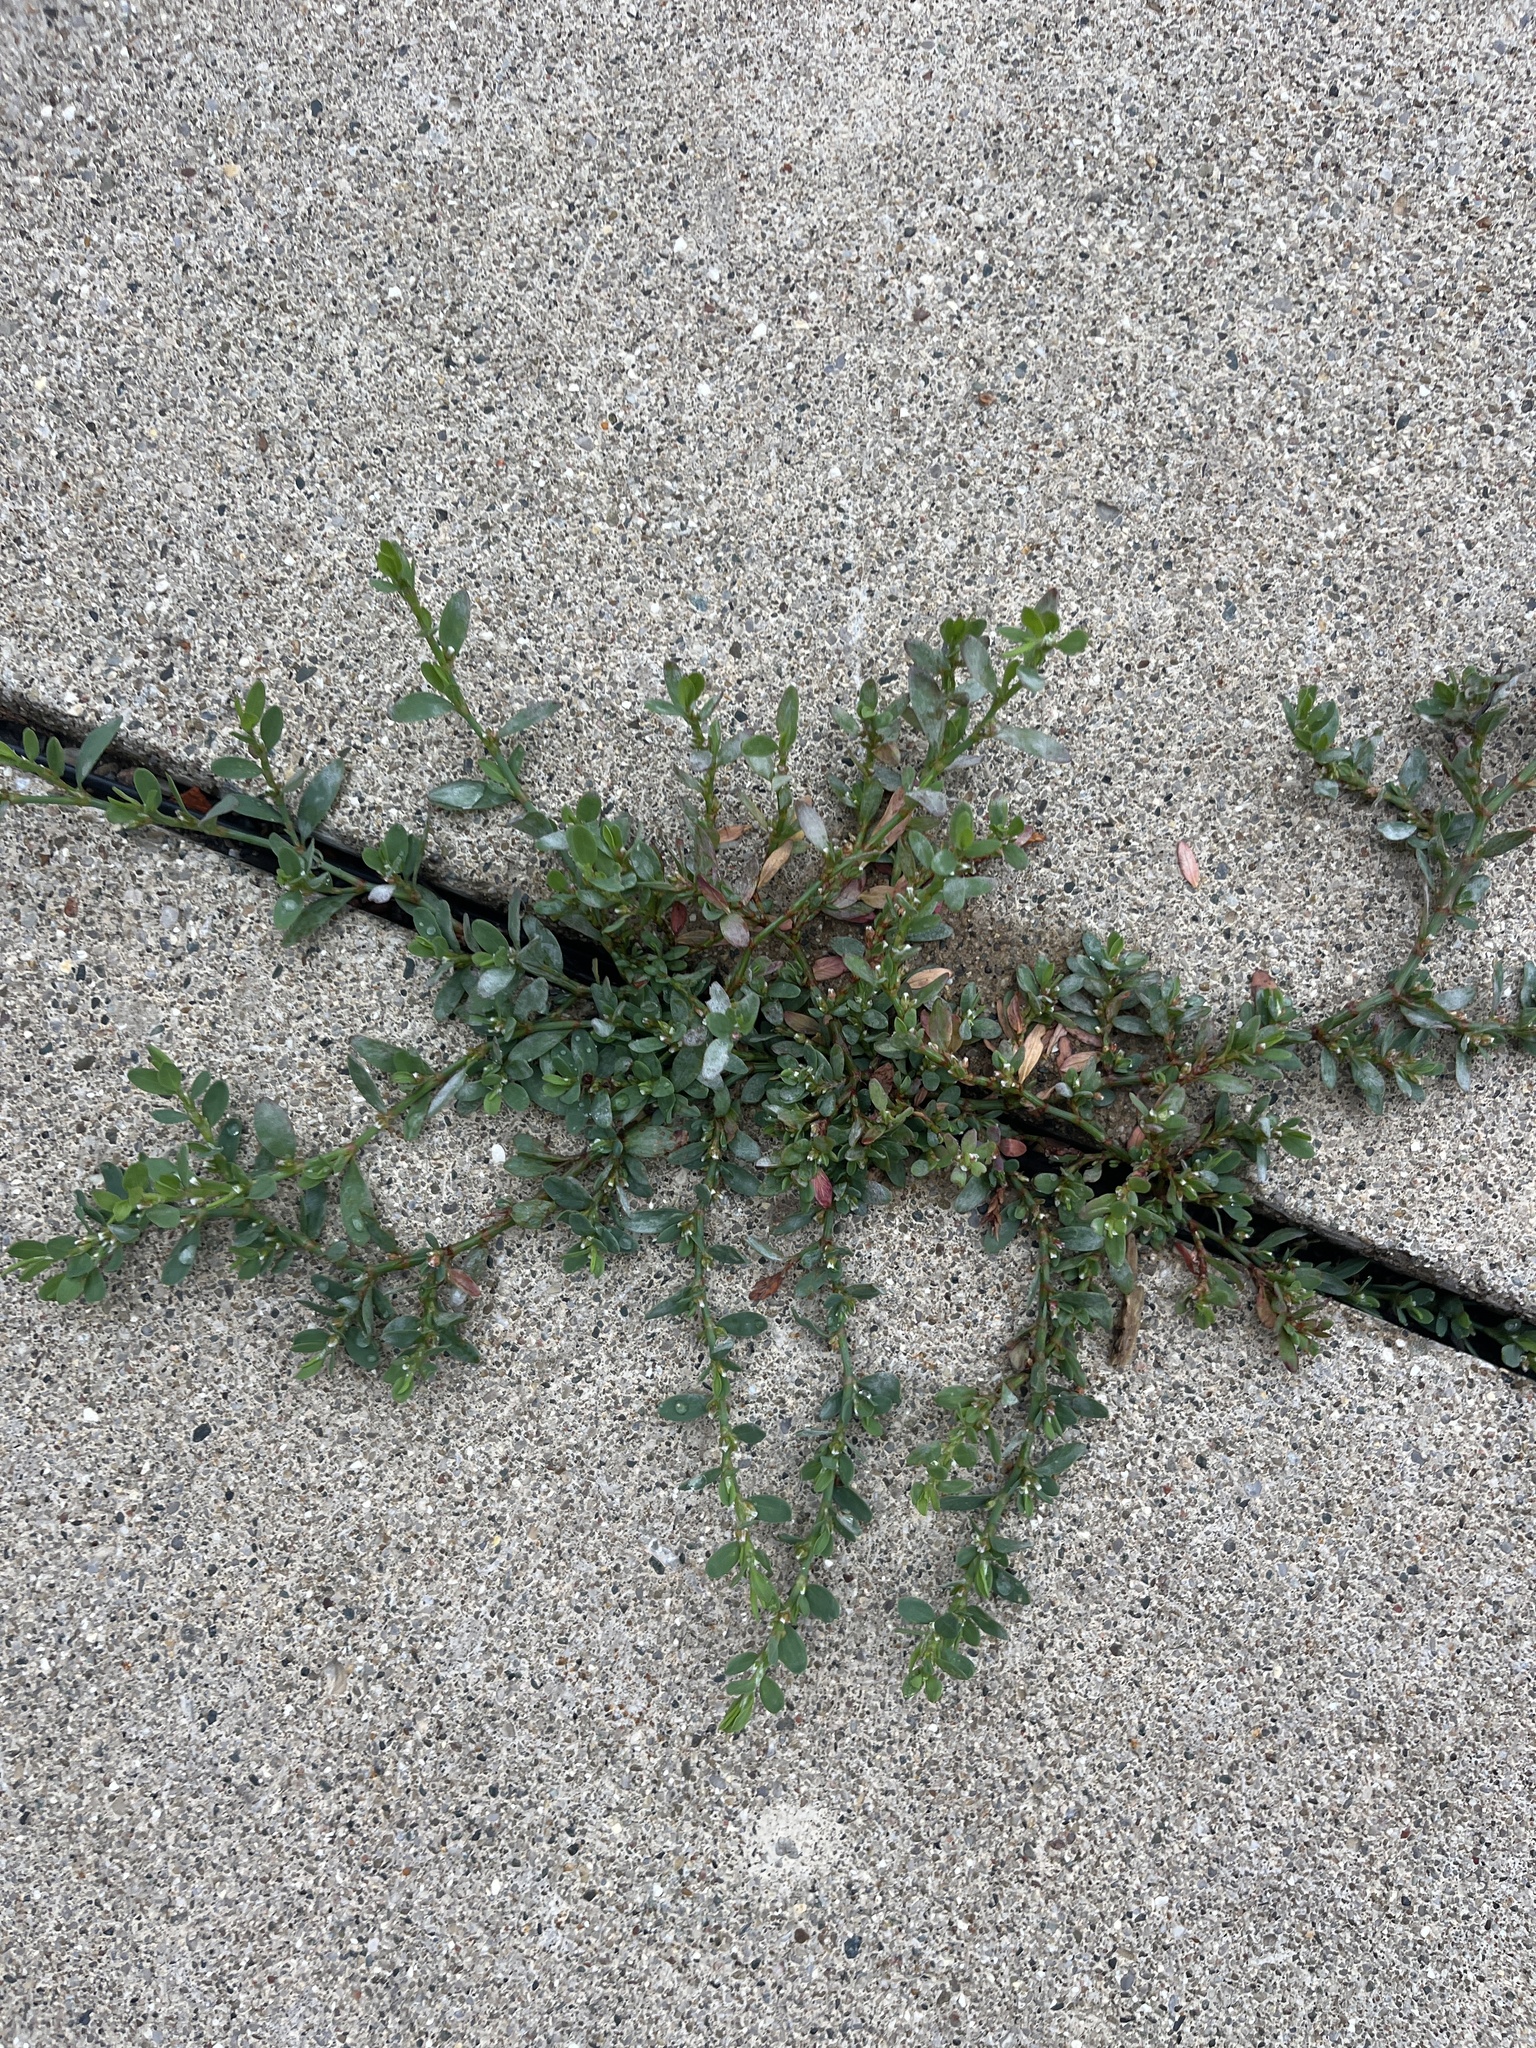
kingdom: Plantae
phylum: Tracheophyta
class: Magnoliopsida
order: Caryophyllales
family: Polygonaceae
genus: Polygonum
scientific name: Polygonum aviculare
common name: Prostrate knotweed
